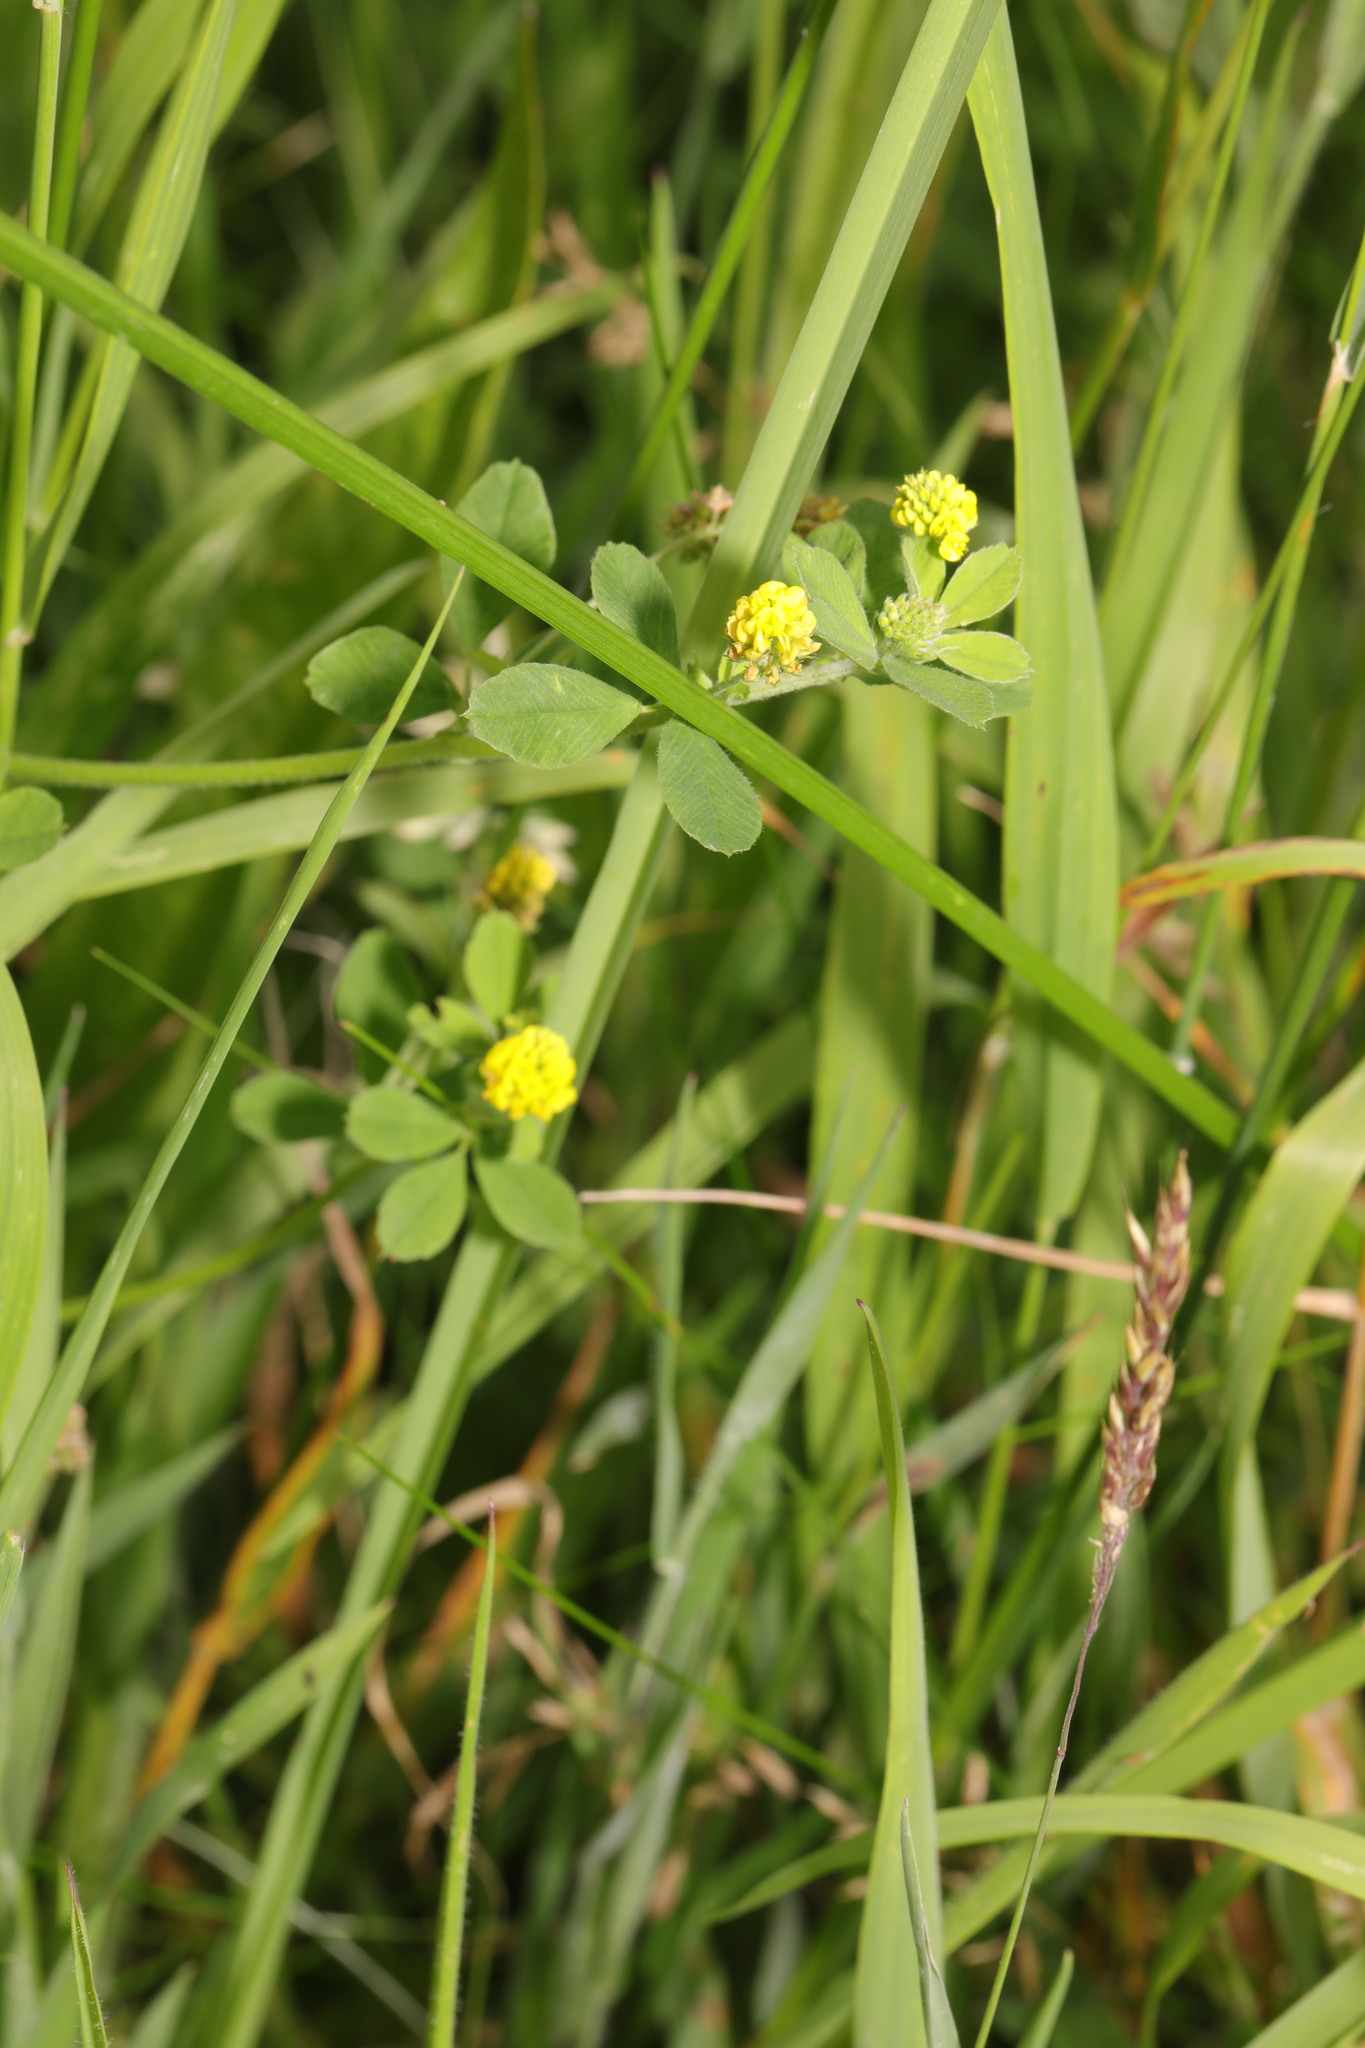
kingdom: Plantae
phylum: Tracheophyta
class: Magnoliopsida
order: Fabales
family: Fabaceae
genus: Medicago
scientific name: Medicago lupulina
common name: Black medick
